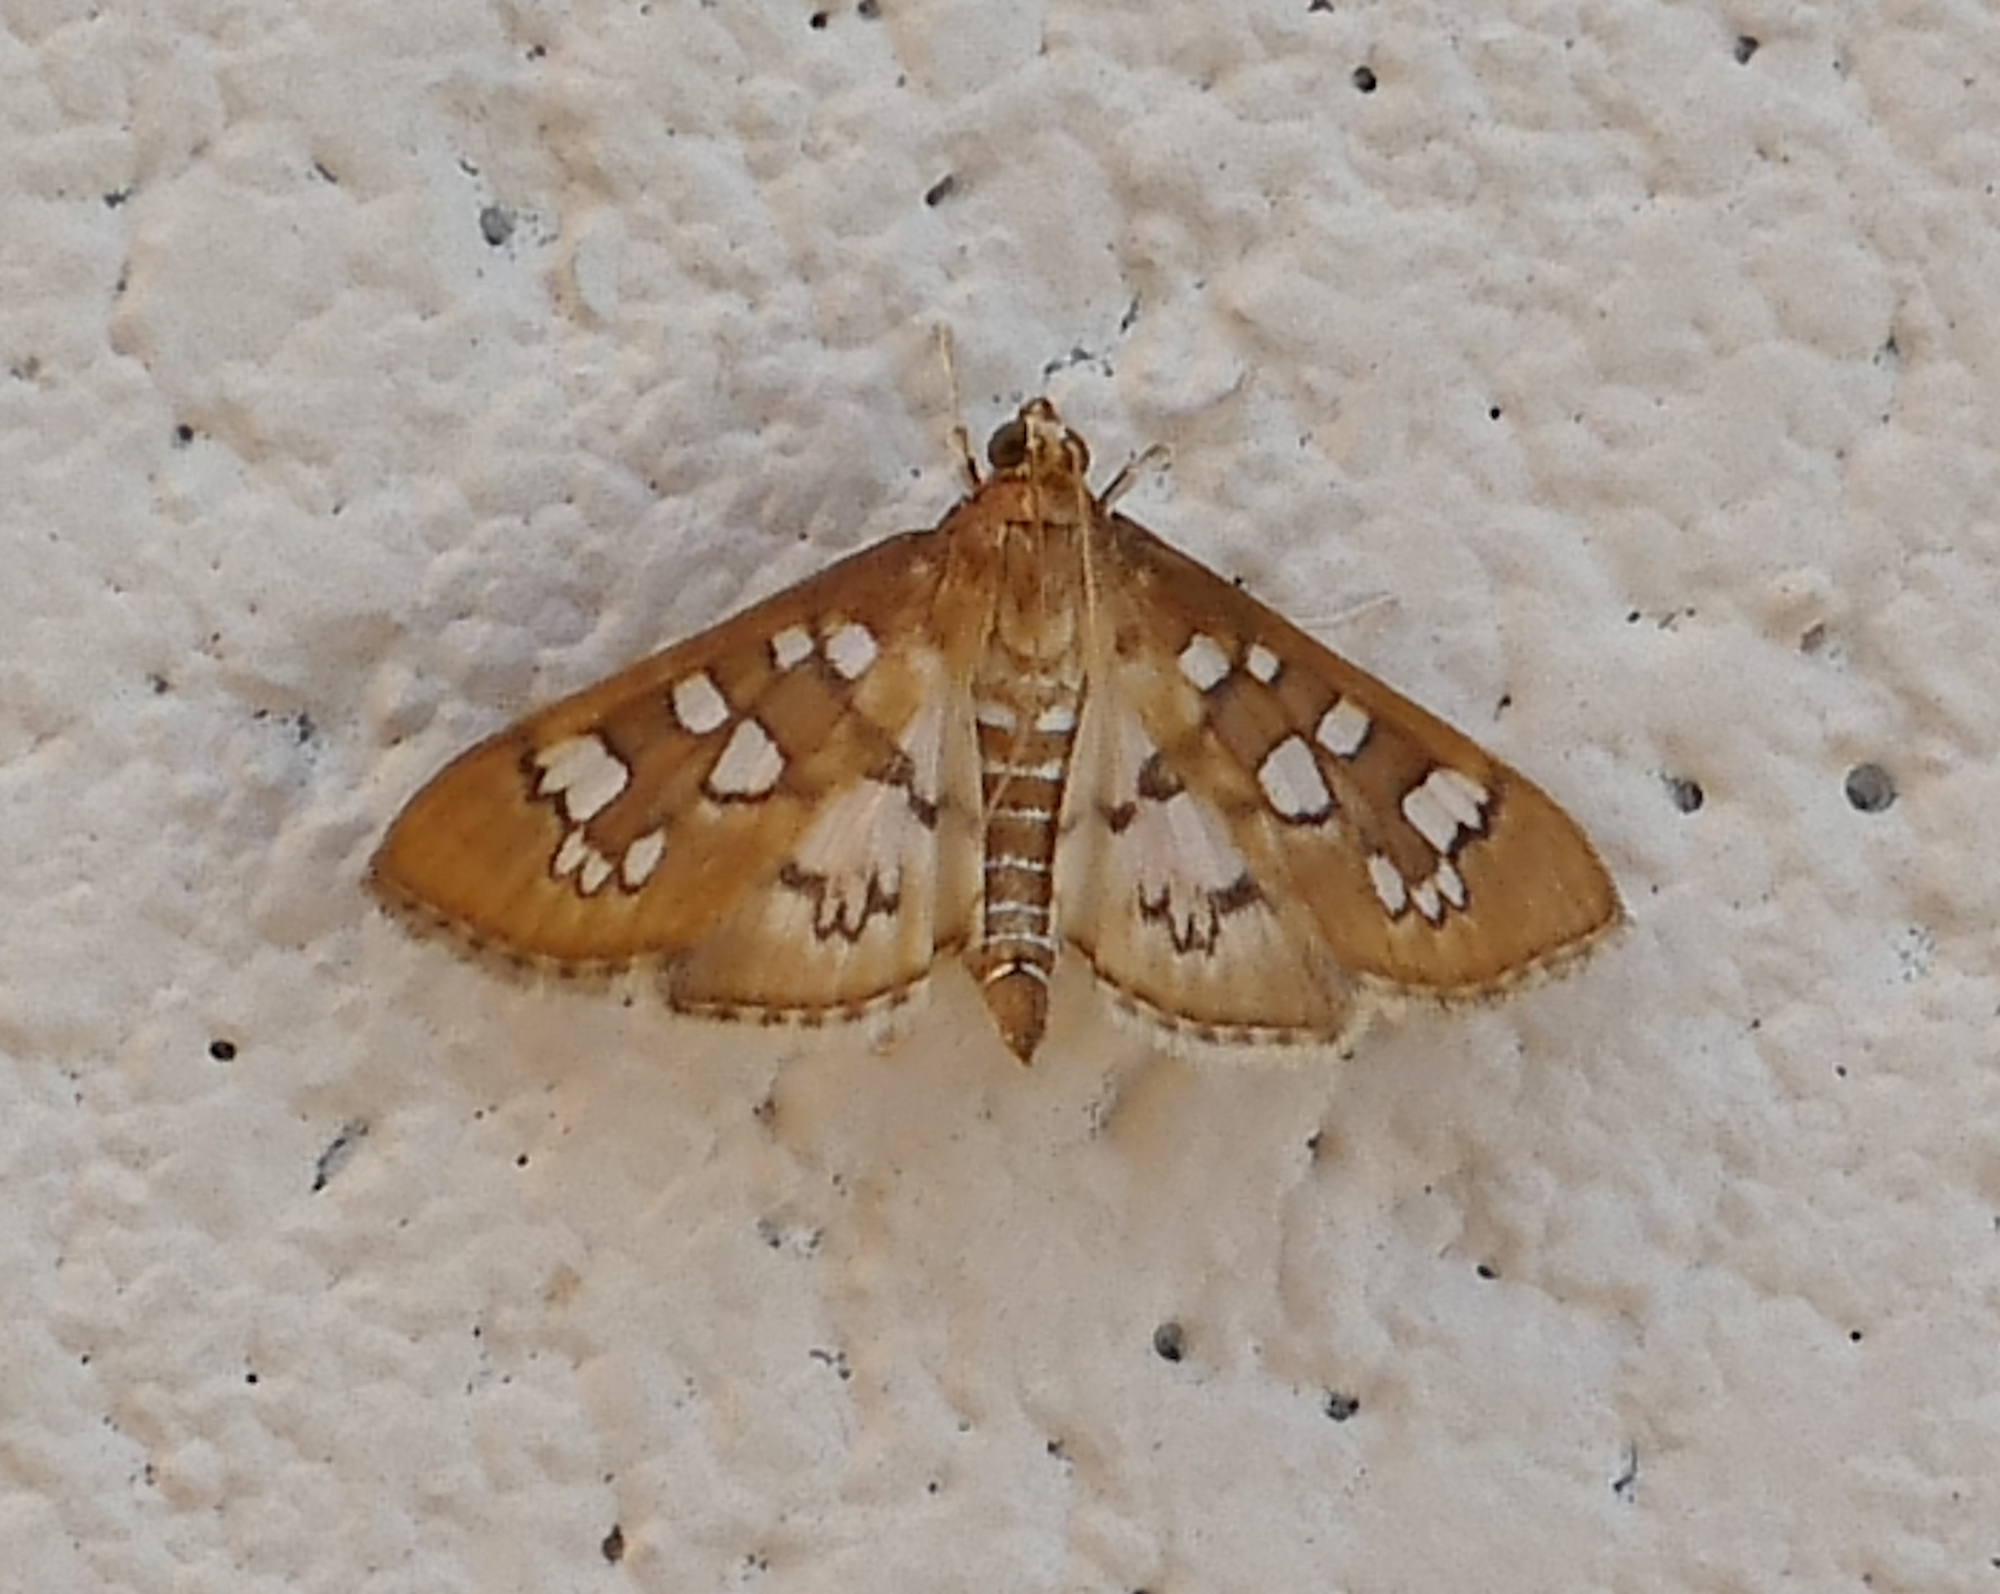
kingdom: Animalia
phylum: Arthropoda
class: Insecta
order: Lepidoptera
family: Crambidae
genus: Samea
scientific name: Samea baccatalis
